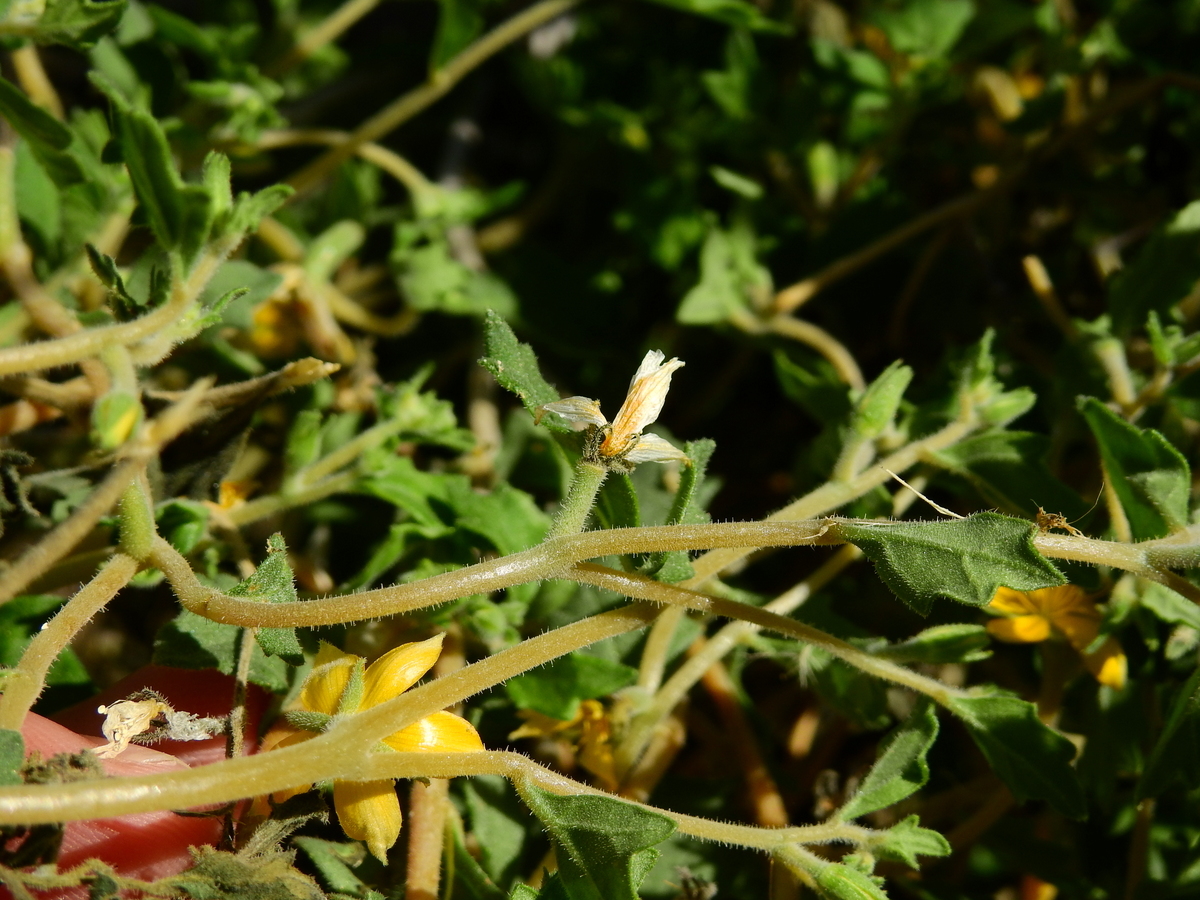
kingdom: Plantae
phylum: Tracheophyta
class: Magnoliopsida
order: Cornales
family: Loasaceae
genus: Mentzelia
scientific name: Mentzelia parvifolia
